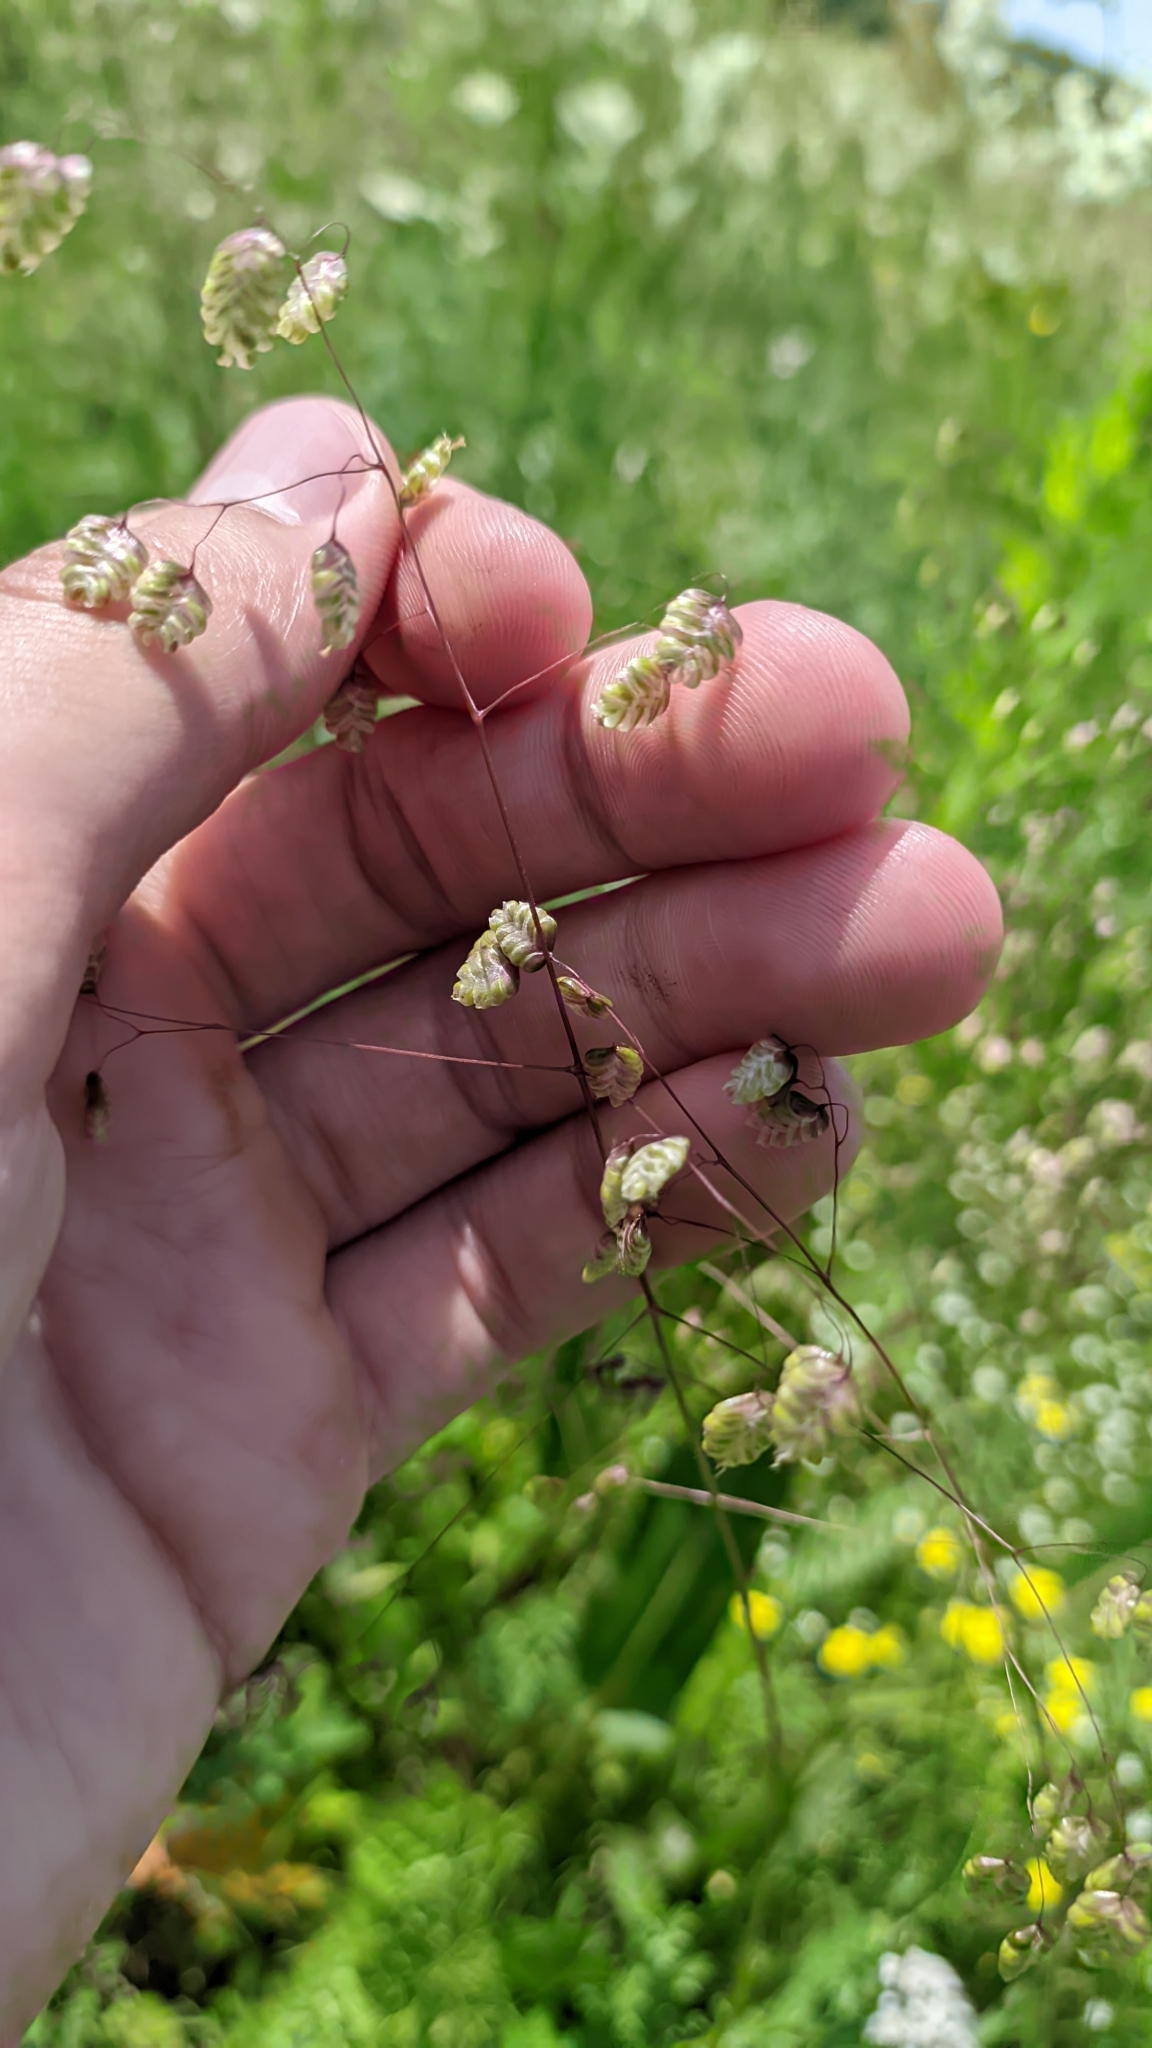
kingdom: Plantae
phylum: Tracheophyta
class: Liliopsida
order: Poales
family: Poaceae
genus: Briza
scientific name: Briza media
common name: Quaking grass
